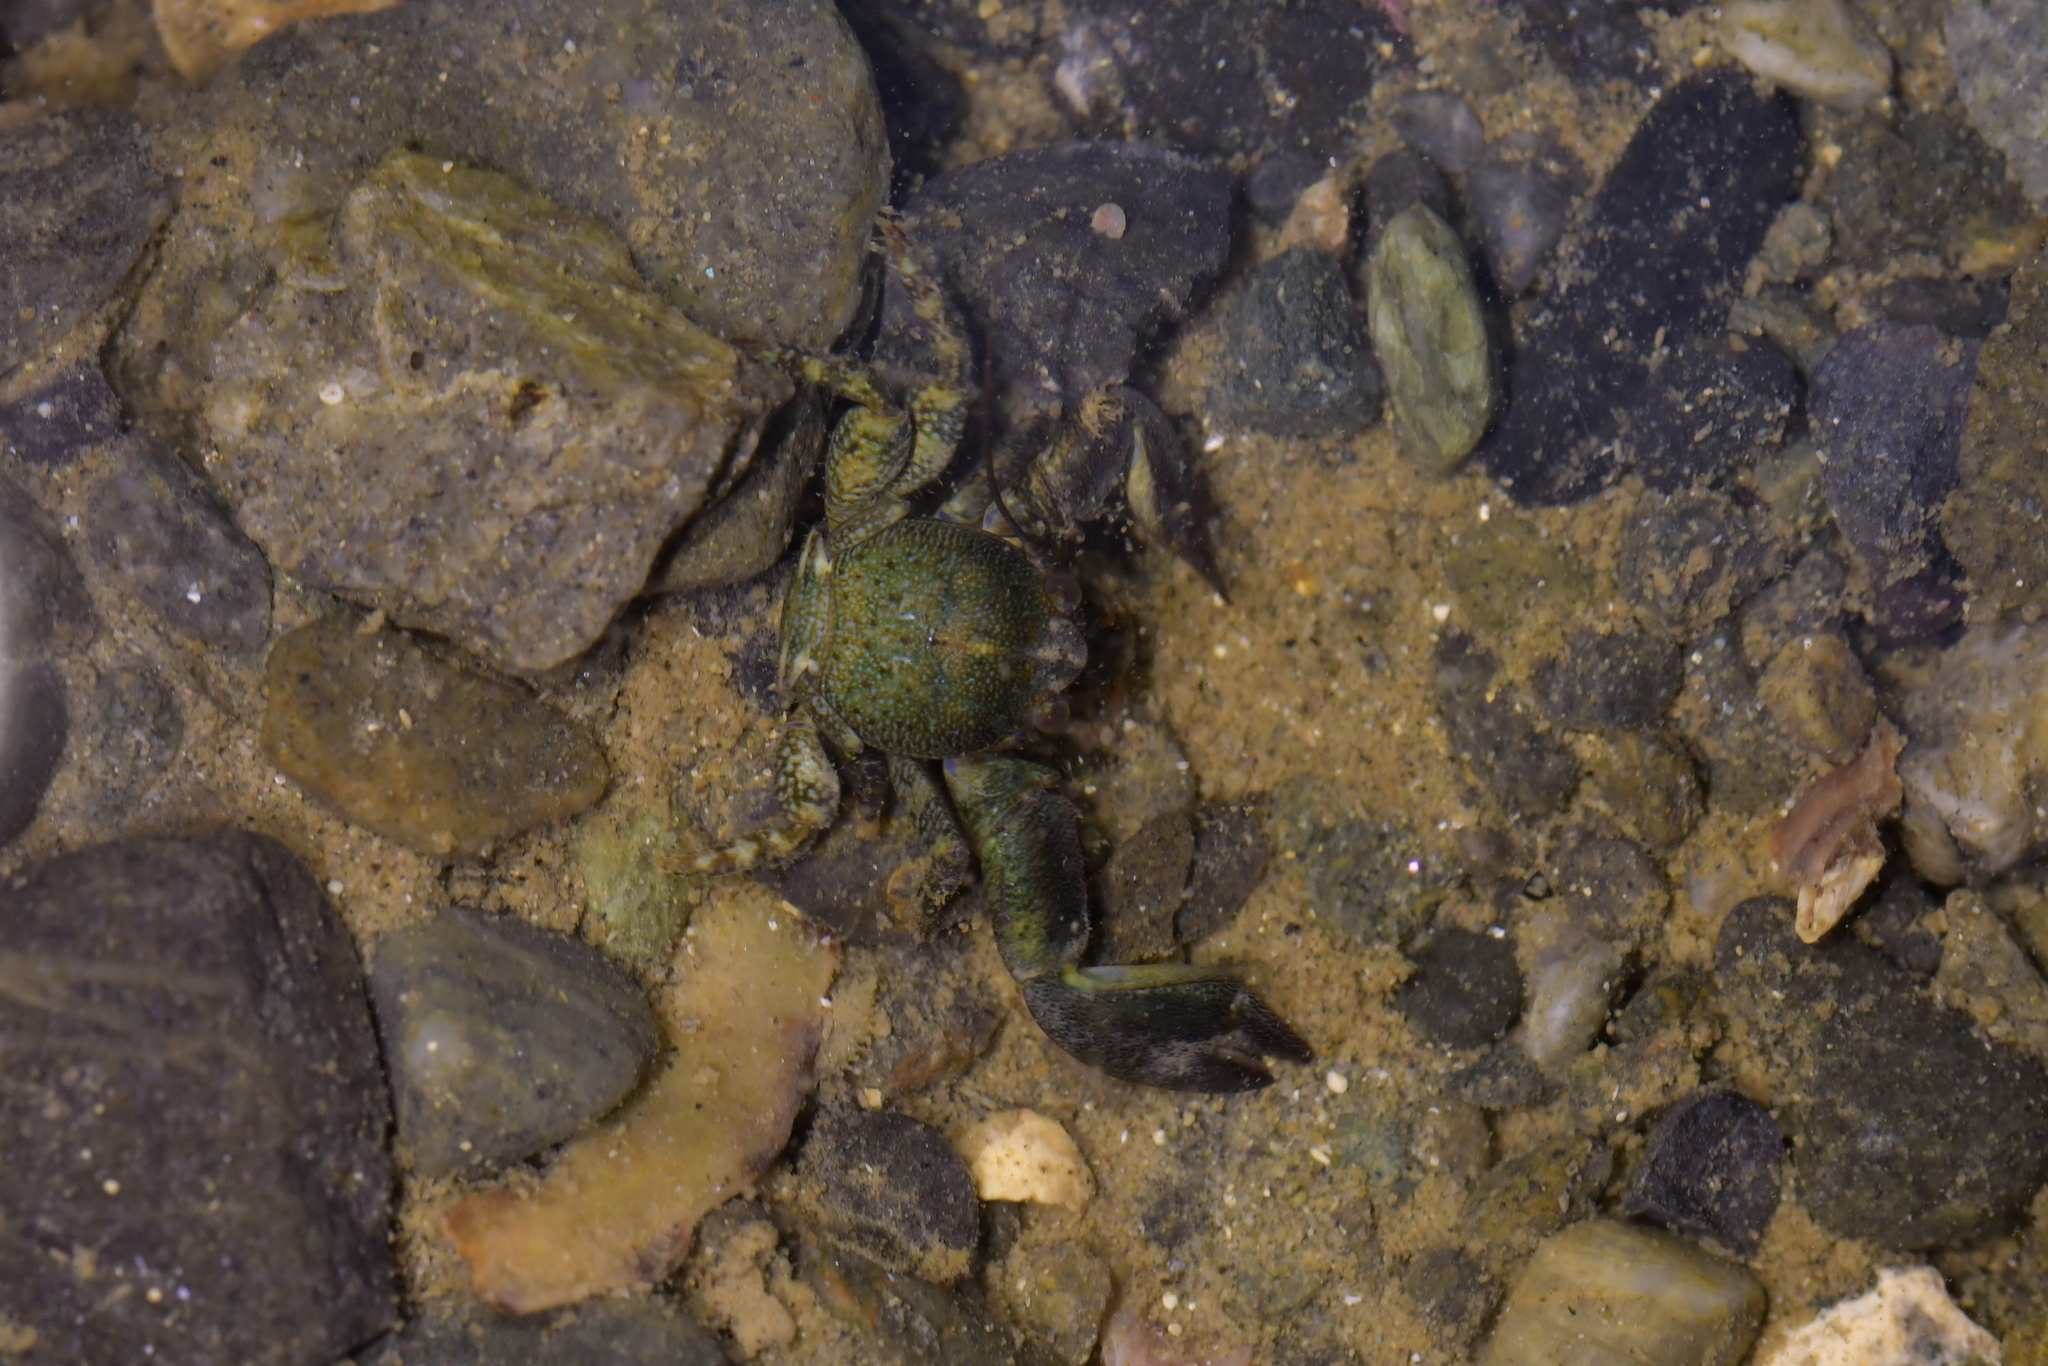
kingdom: Animalia
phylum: Arthropoda
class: Malacostraca
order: Decapoda
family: Porcellanidae
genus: Petrolisthes
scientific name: Petrolisthes elongatus
